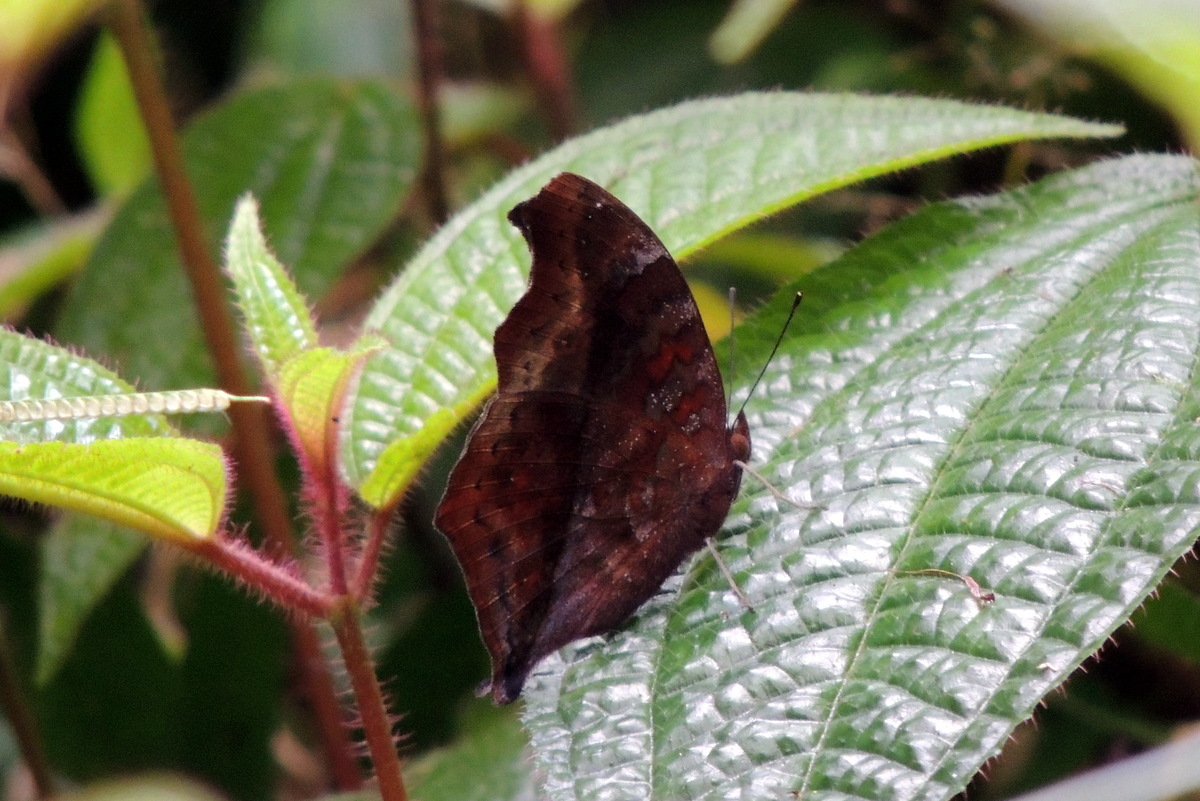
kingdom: Animalia
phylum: Arthropoda
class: Insecta
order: Lepidoptera
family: Nymphalidae
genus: Junonia
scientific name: Junonia goudotii
